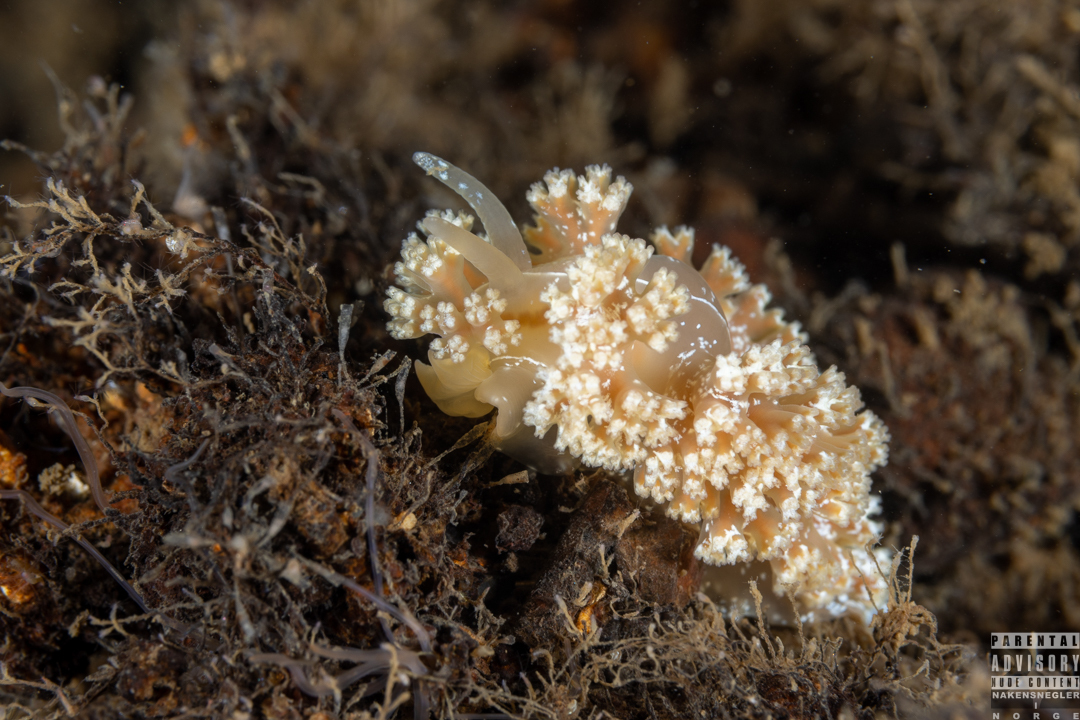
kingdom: Animalia
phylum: Mollusca
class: Gastropoda
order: Nudibranchia
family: Heroidae
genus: Hero
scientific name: Hero formosa
